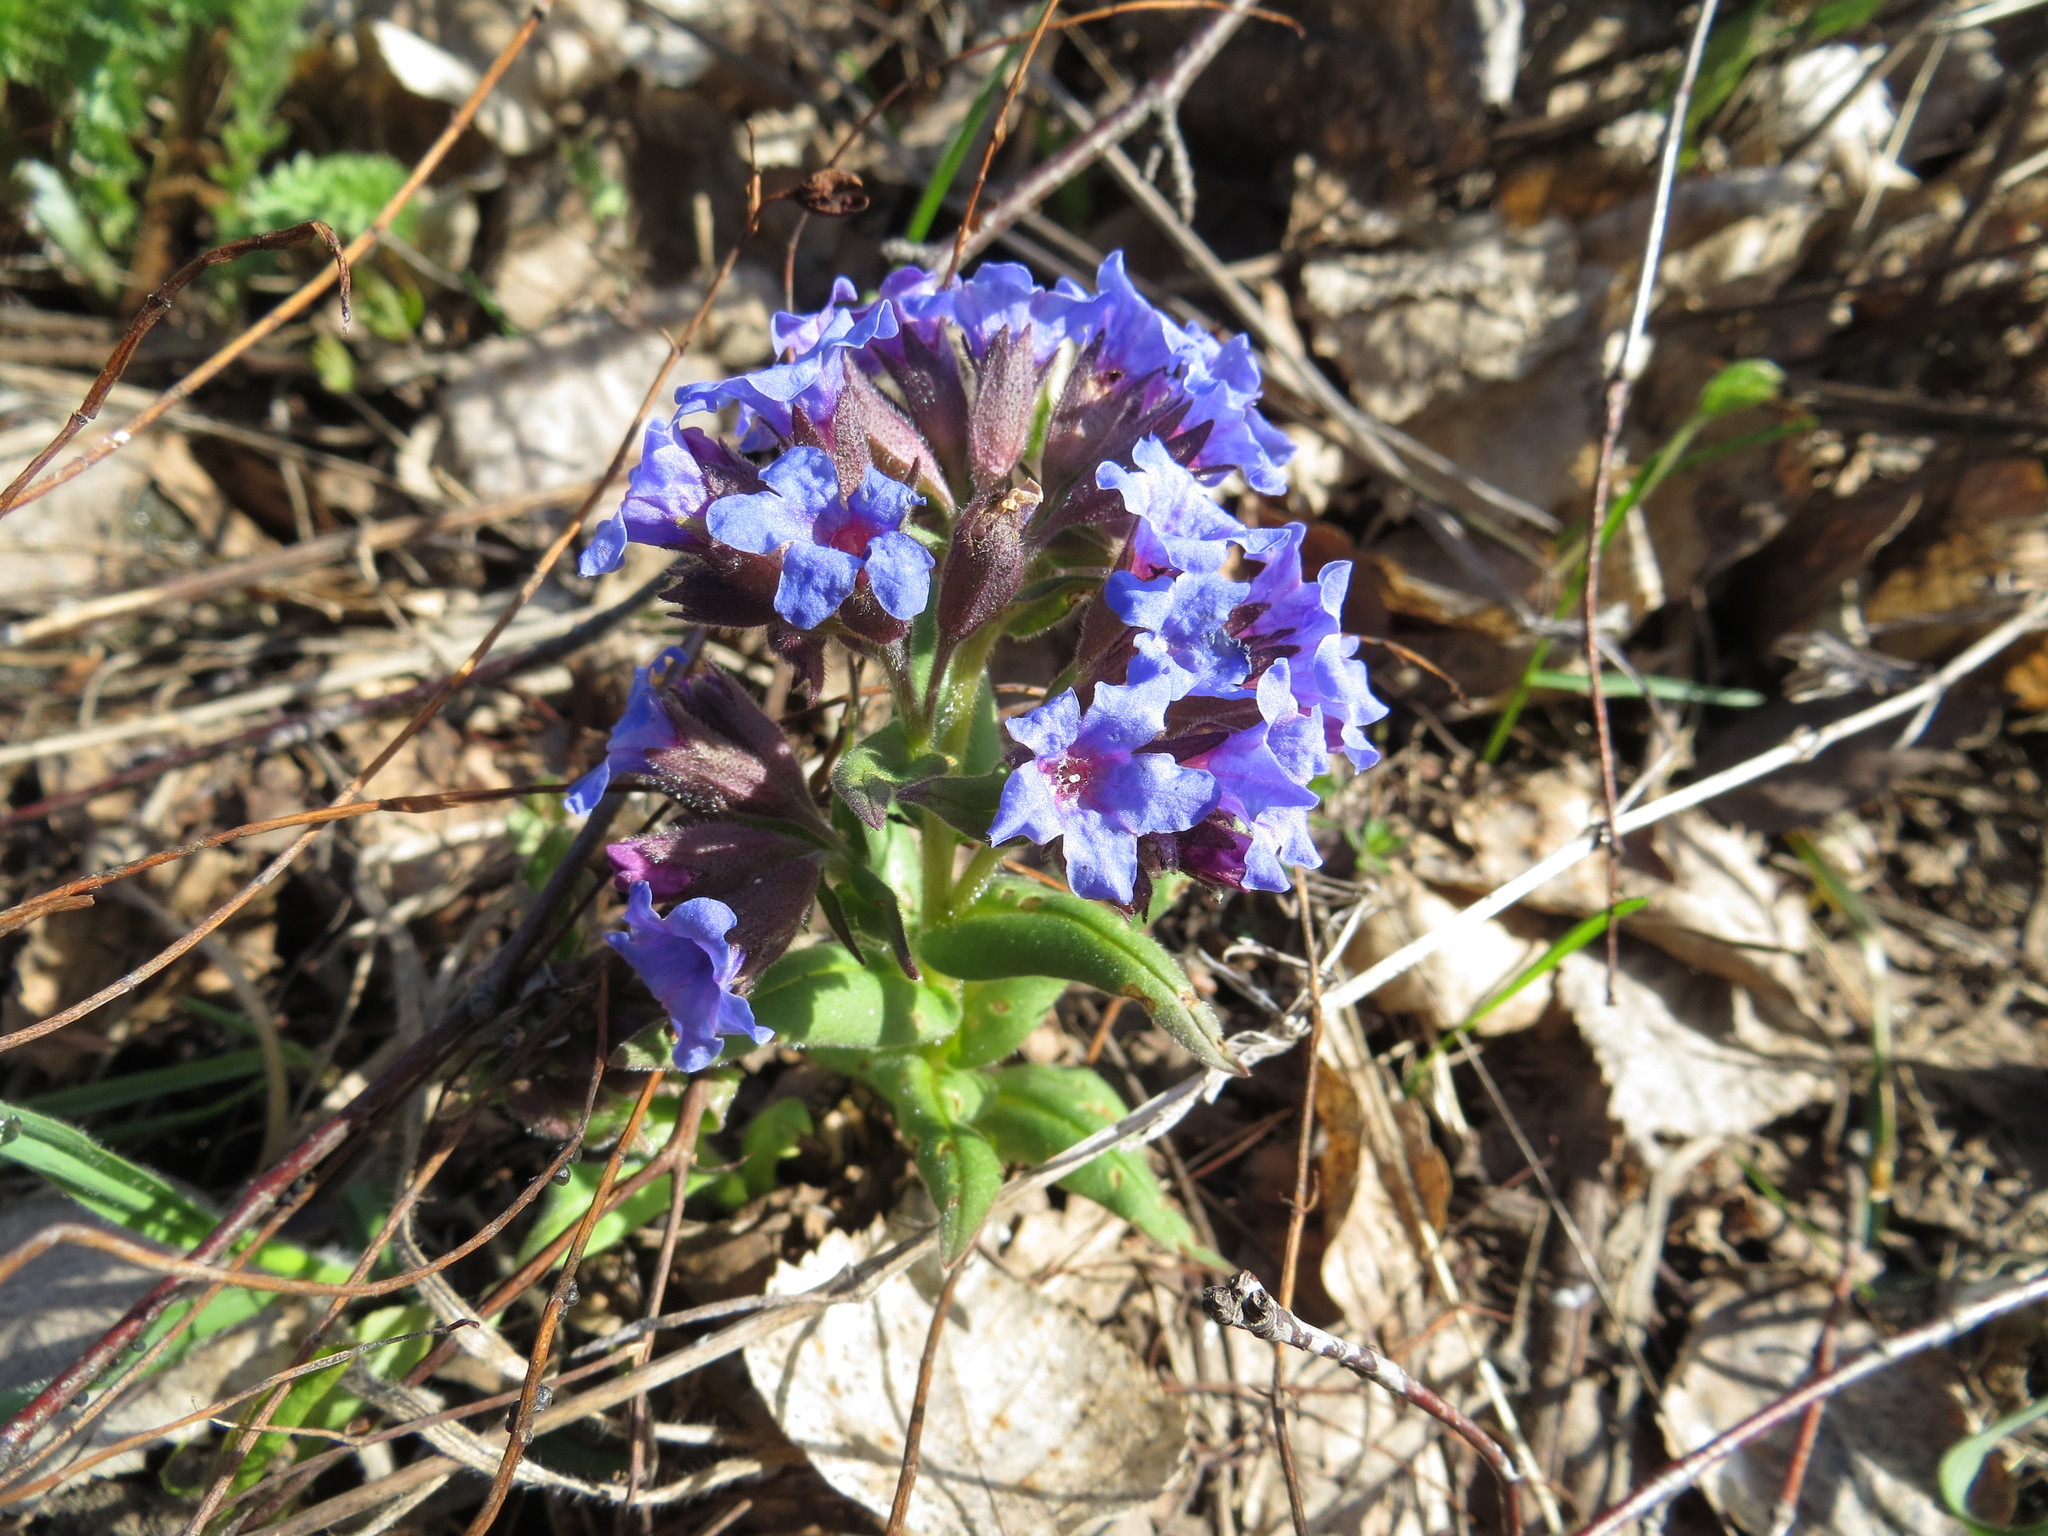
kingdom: Plantae
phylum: Tracheophyta
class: Magnoliopsida
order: Boraginales
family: Boraginaceae
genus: Pulmonaria
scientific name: Pulmonaria mollis
